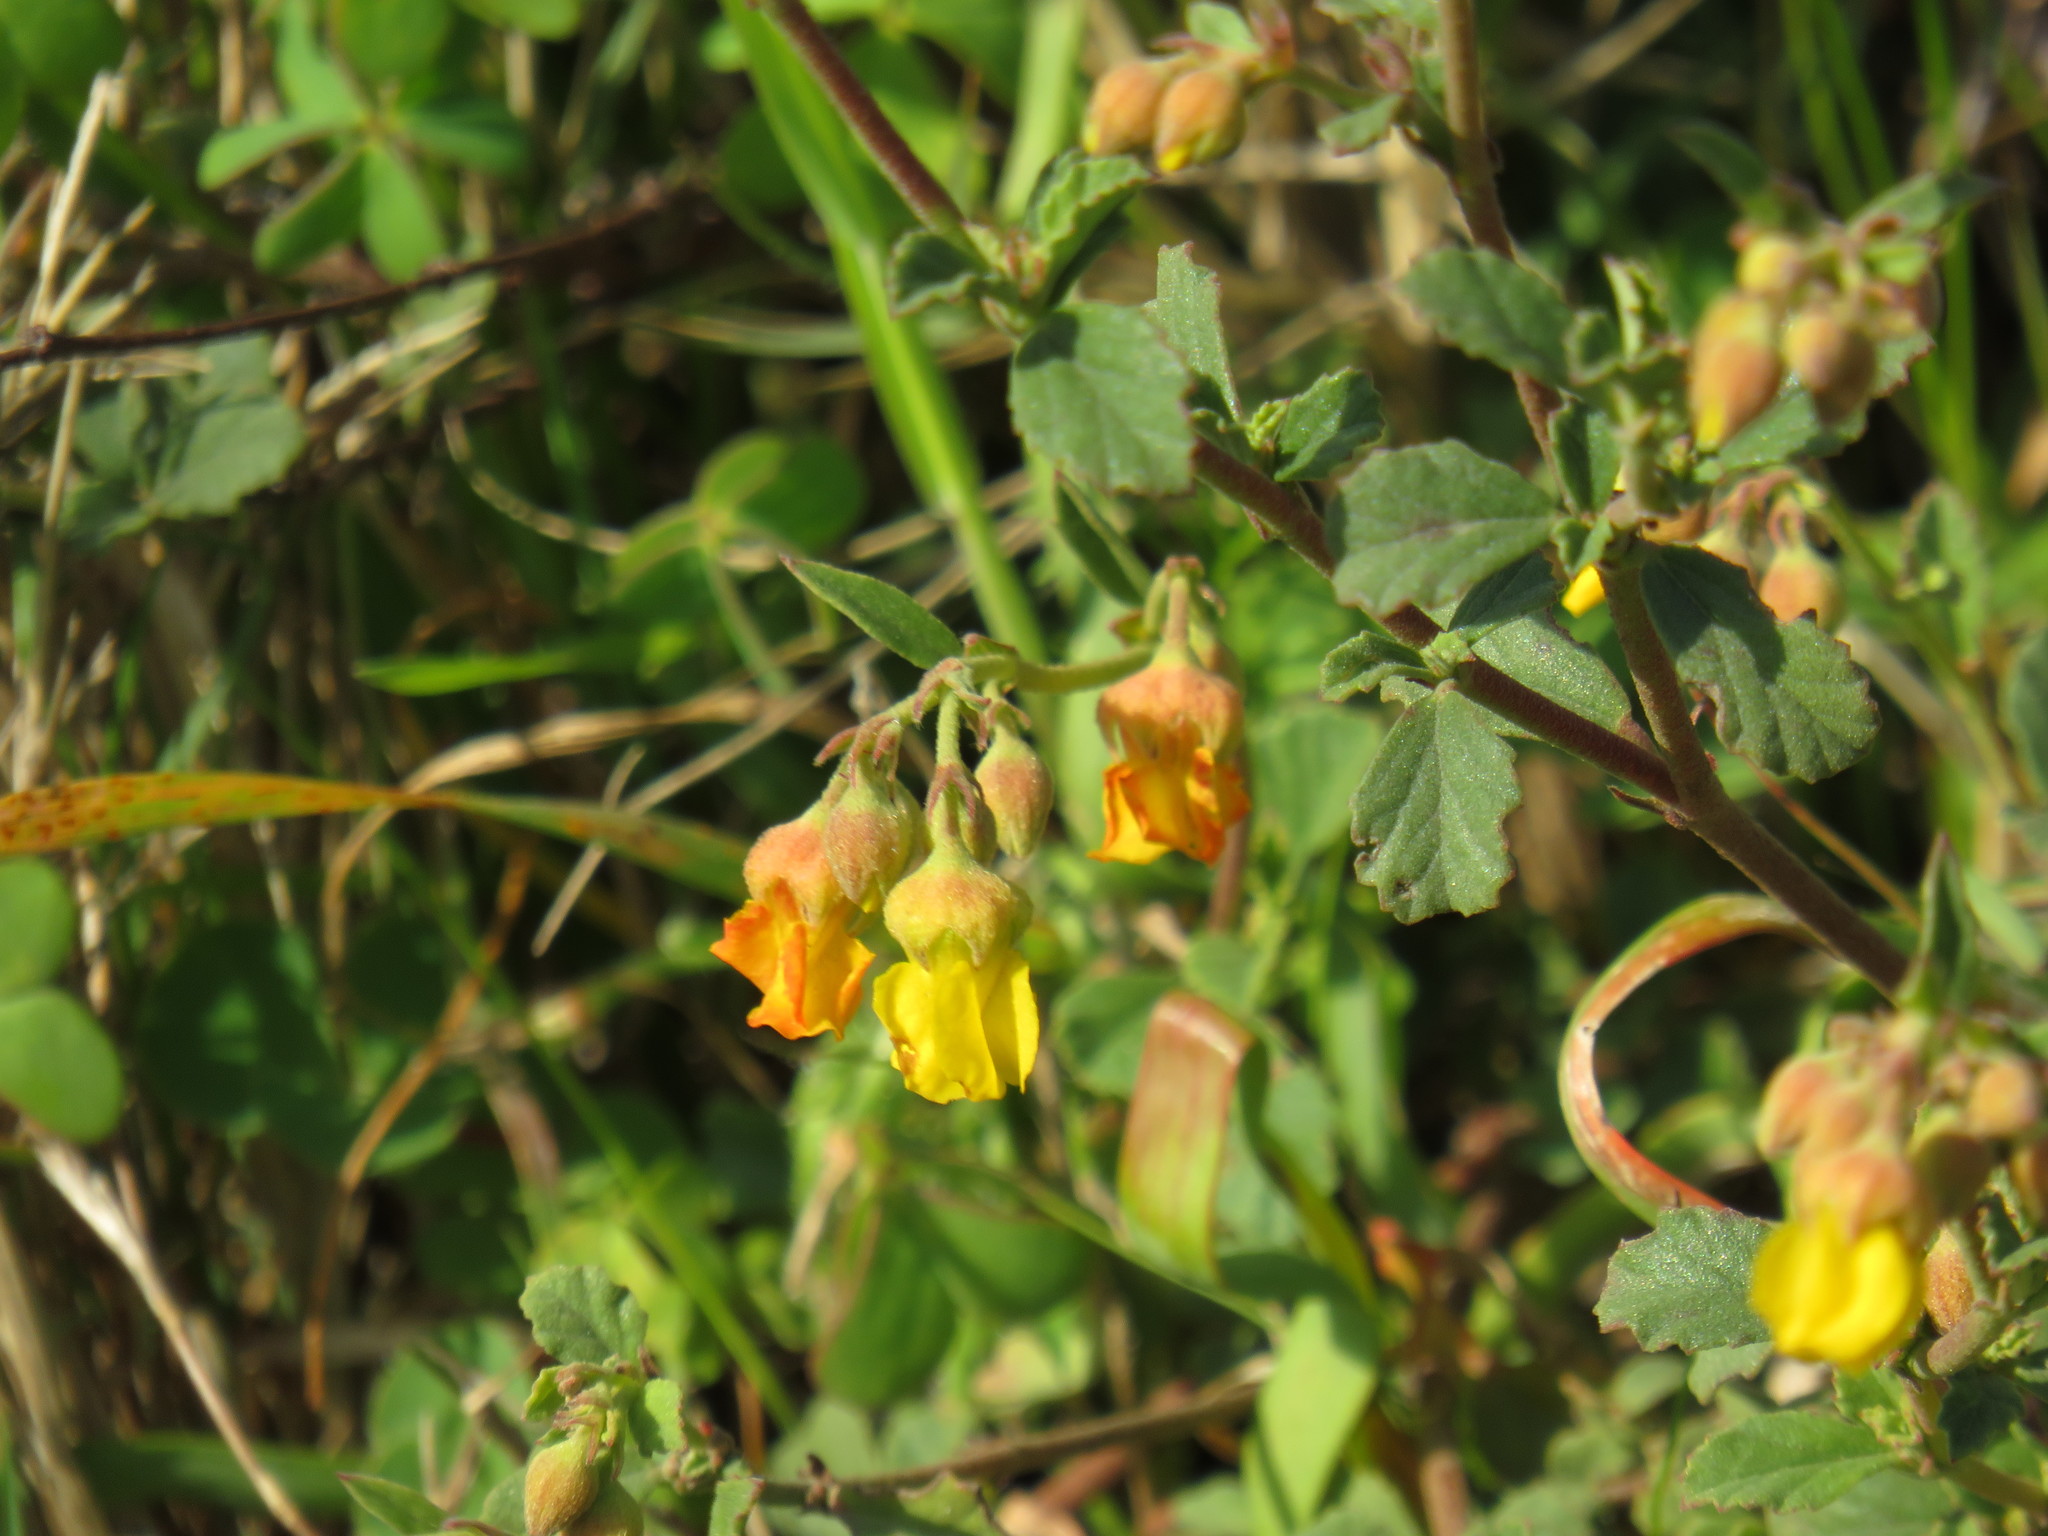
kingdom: Plantae
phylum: Tracheophyta
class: Magnoliopsida
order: Malvales
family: Malvaceae
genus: Hermannia
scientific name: Hermannia multiflora
